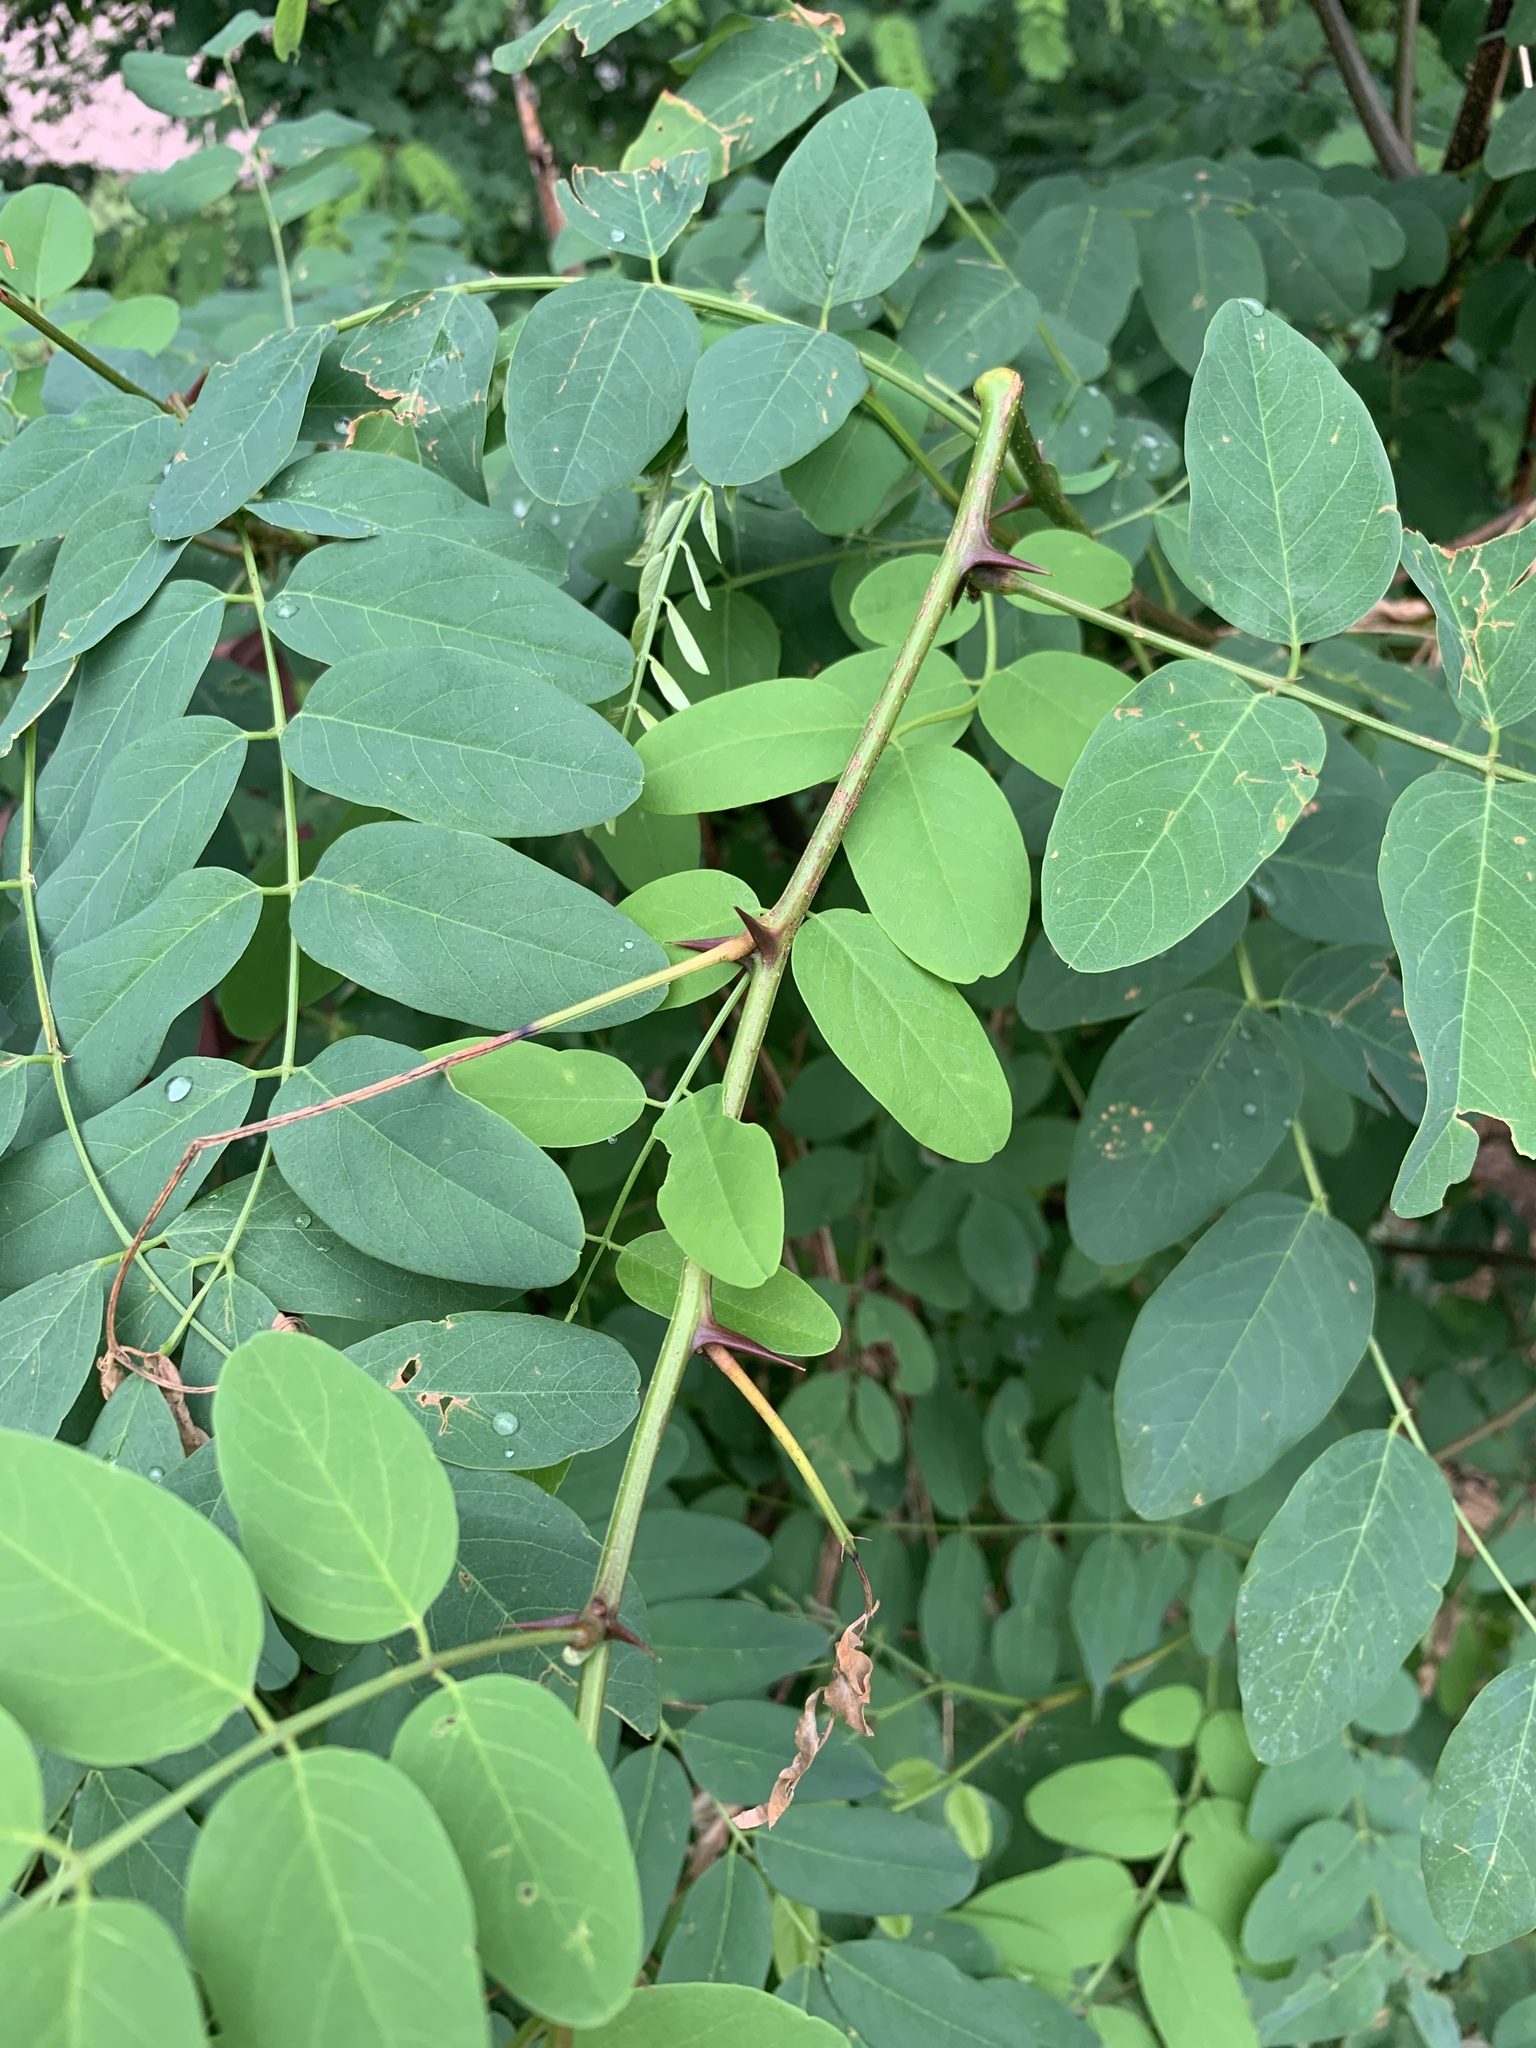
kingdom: Plantae
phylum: Tracheophyta
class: Magnoliopsida
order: Fabales
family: Fabaceae
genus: Robinia
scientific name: Robinia pseudoacacia
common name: Black locust
